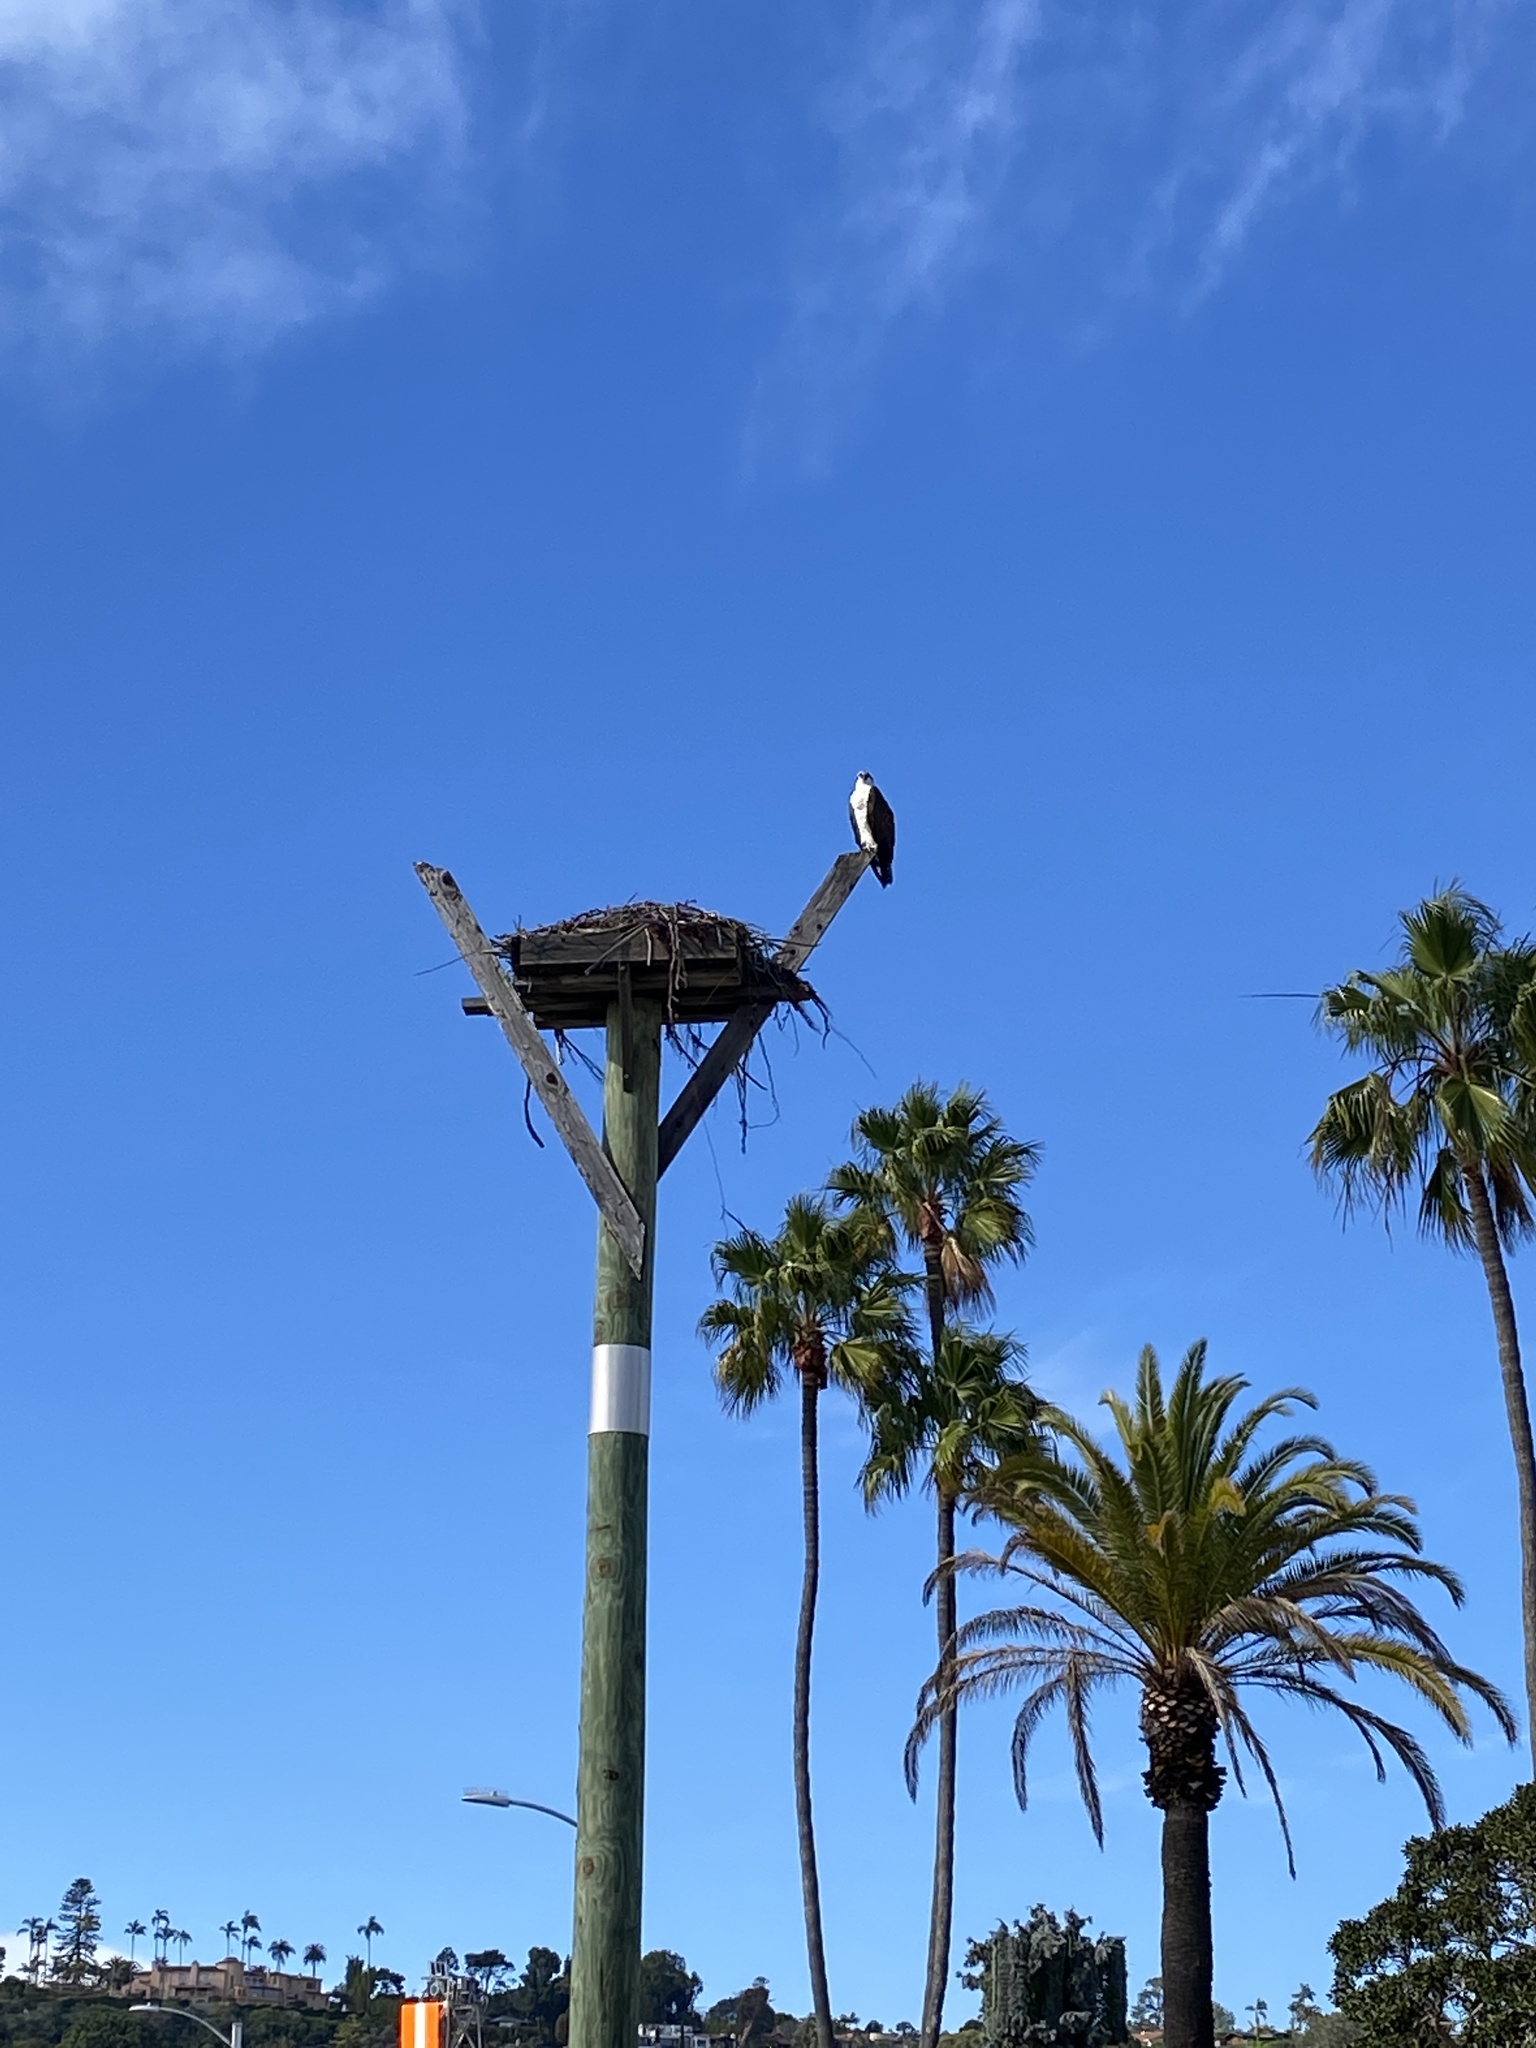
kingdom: Animalia
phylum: Chordata
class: Aves
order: Accipitriformes
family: Pandionidae
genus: Pandion
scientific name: Pandion haliaetus
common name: Osprey
